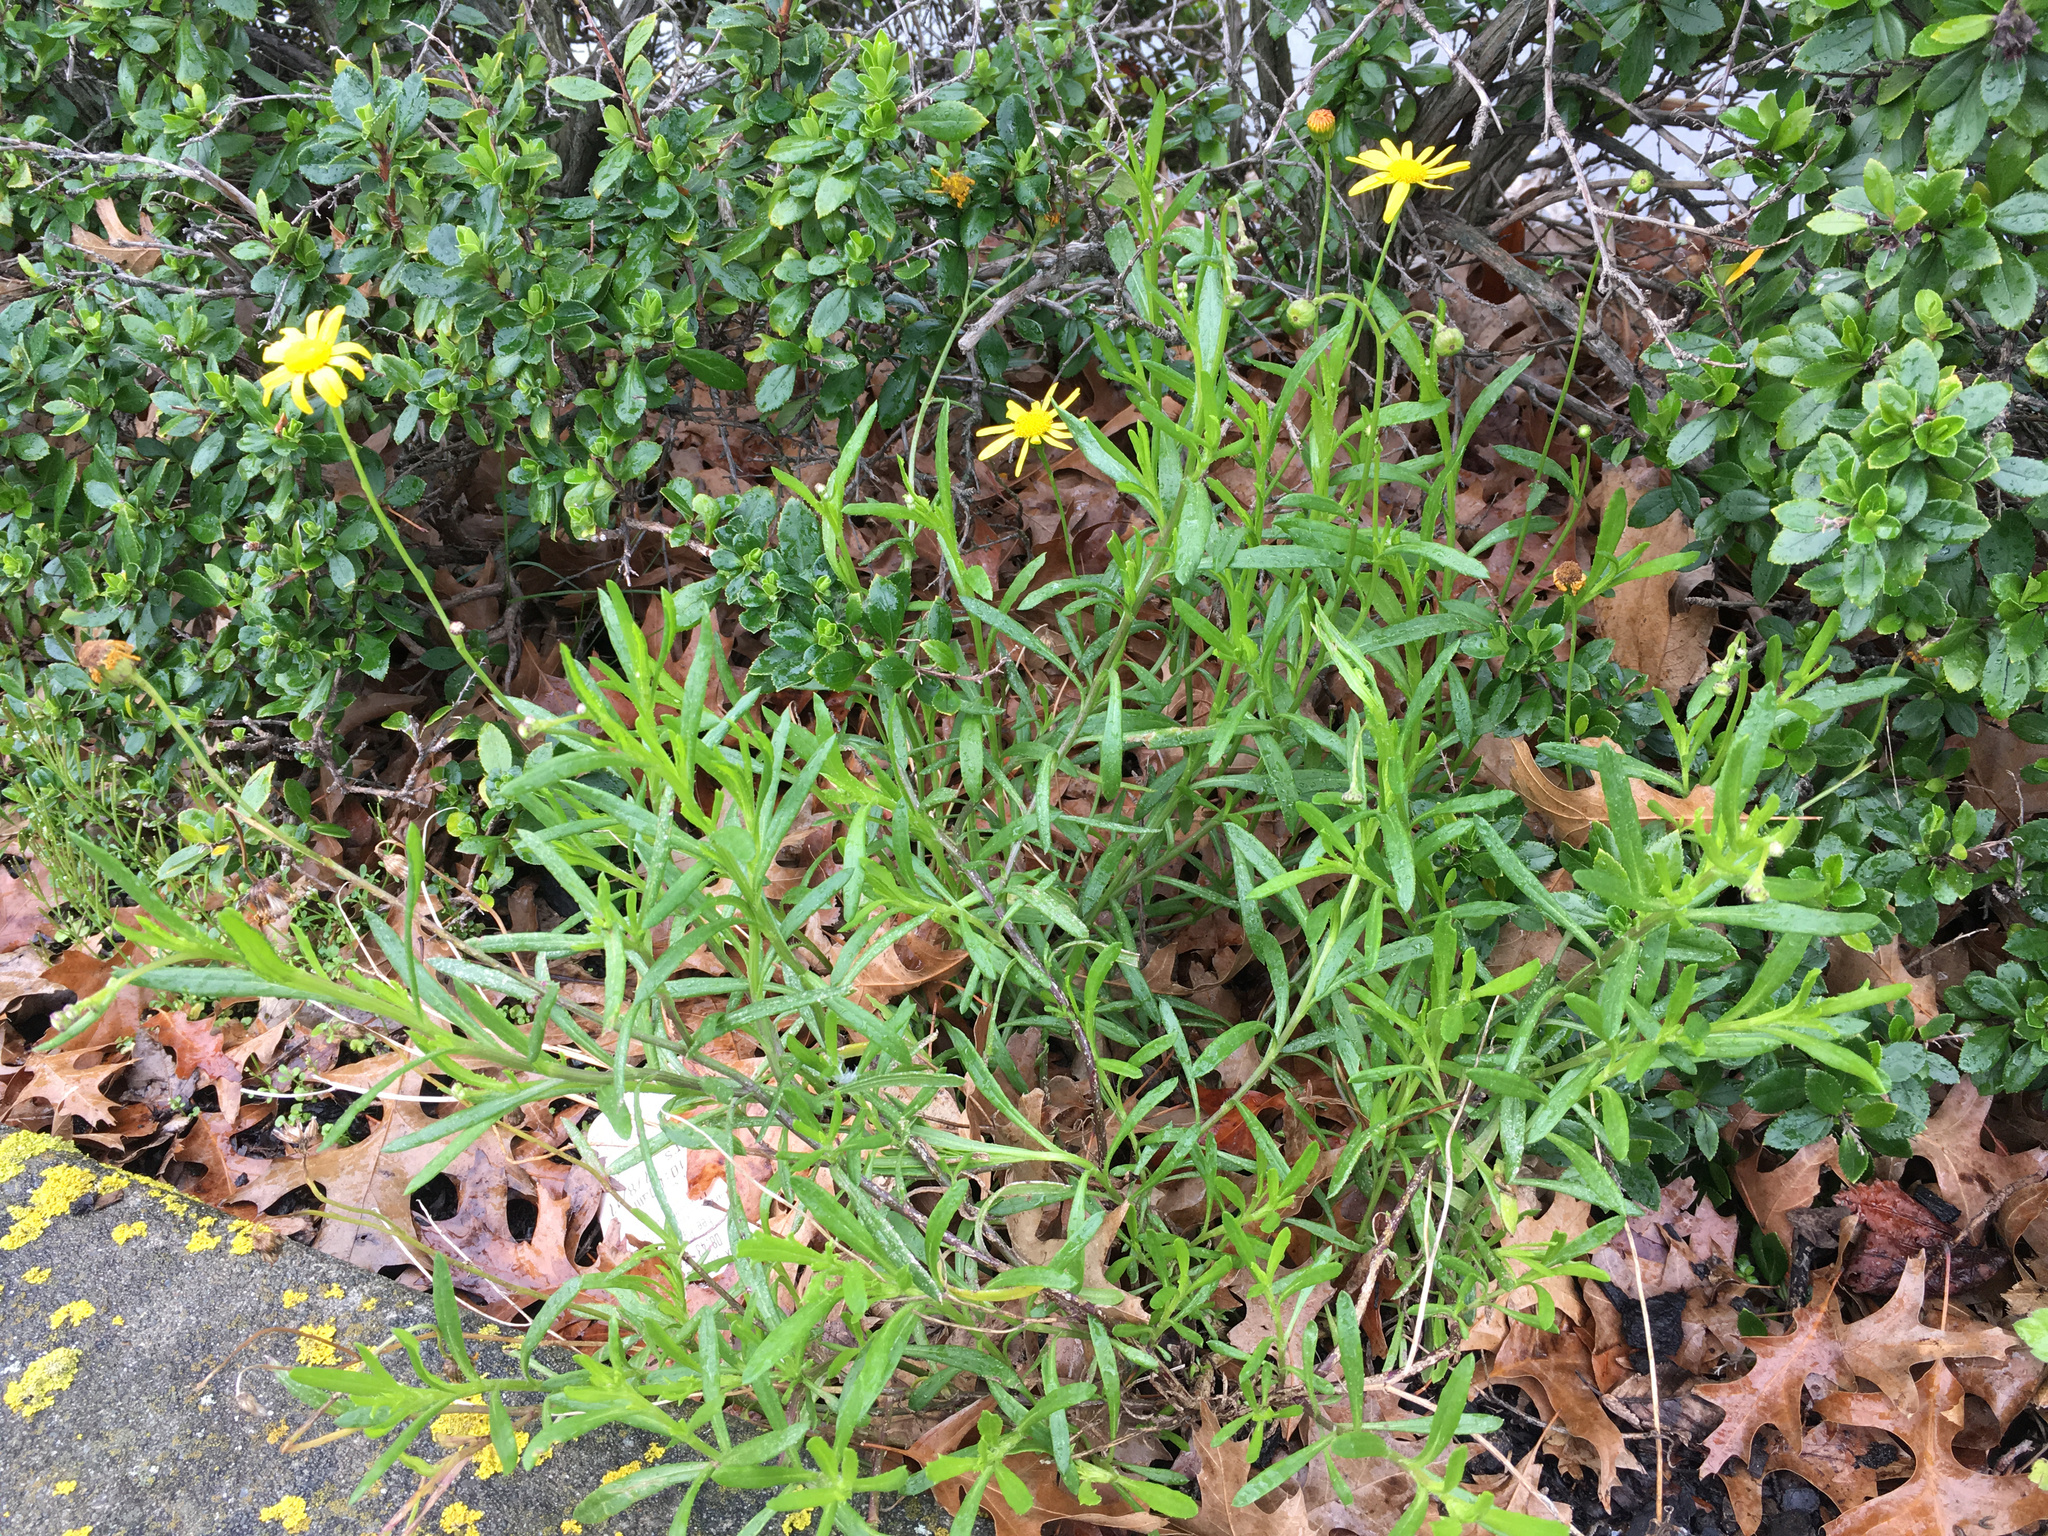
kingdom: Plantae
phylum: Tracheophyta
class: Magnoliopsida
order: Asterales
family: Asteraceae
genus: Senecio
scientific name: Senecio skirrhodon
